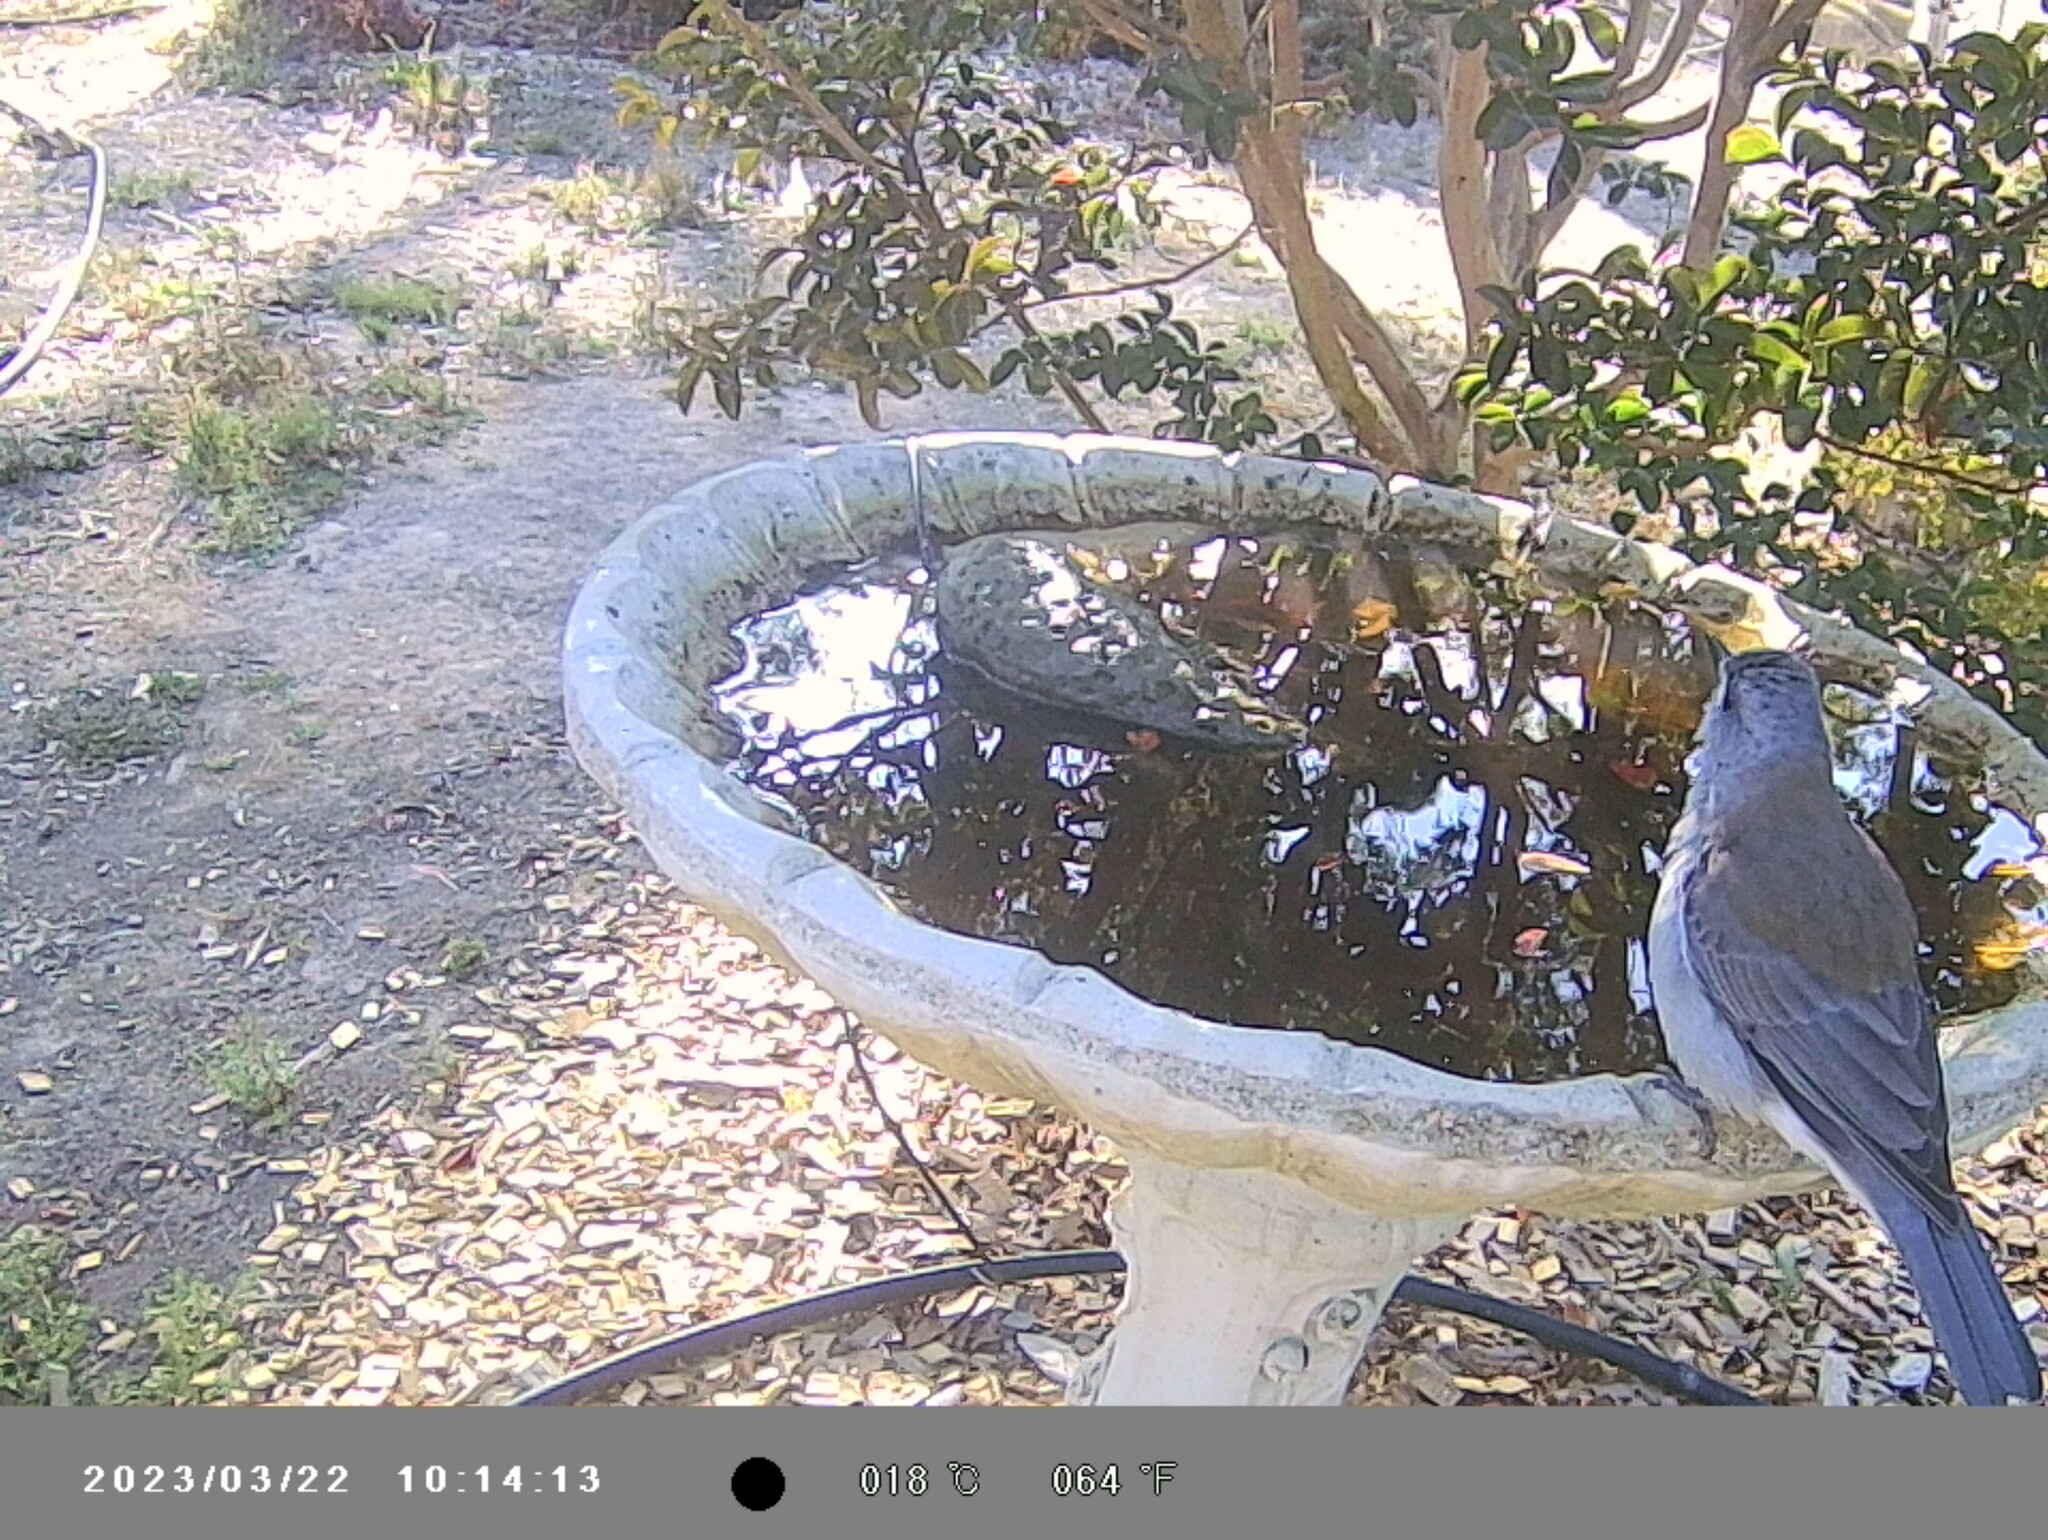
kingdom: Animalia
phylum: Chordata
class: Aves
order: Passeriformes
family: Pachycephalidae
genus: Colluricincla
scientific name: Colluricincla harmonica
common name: Grey shrikethrush
